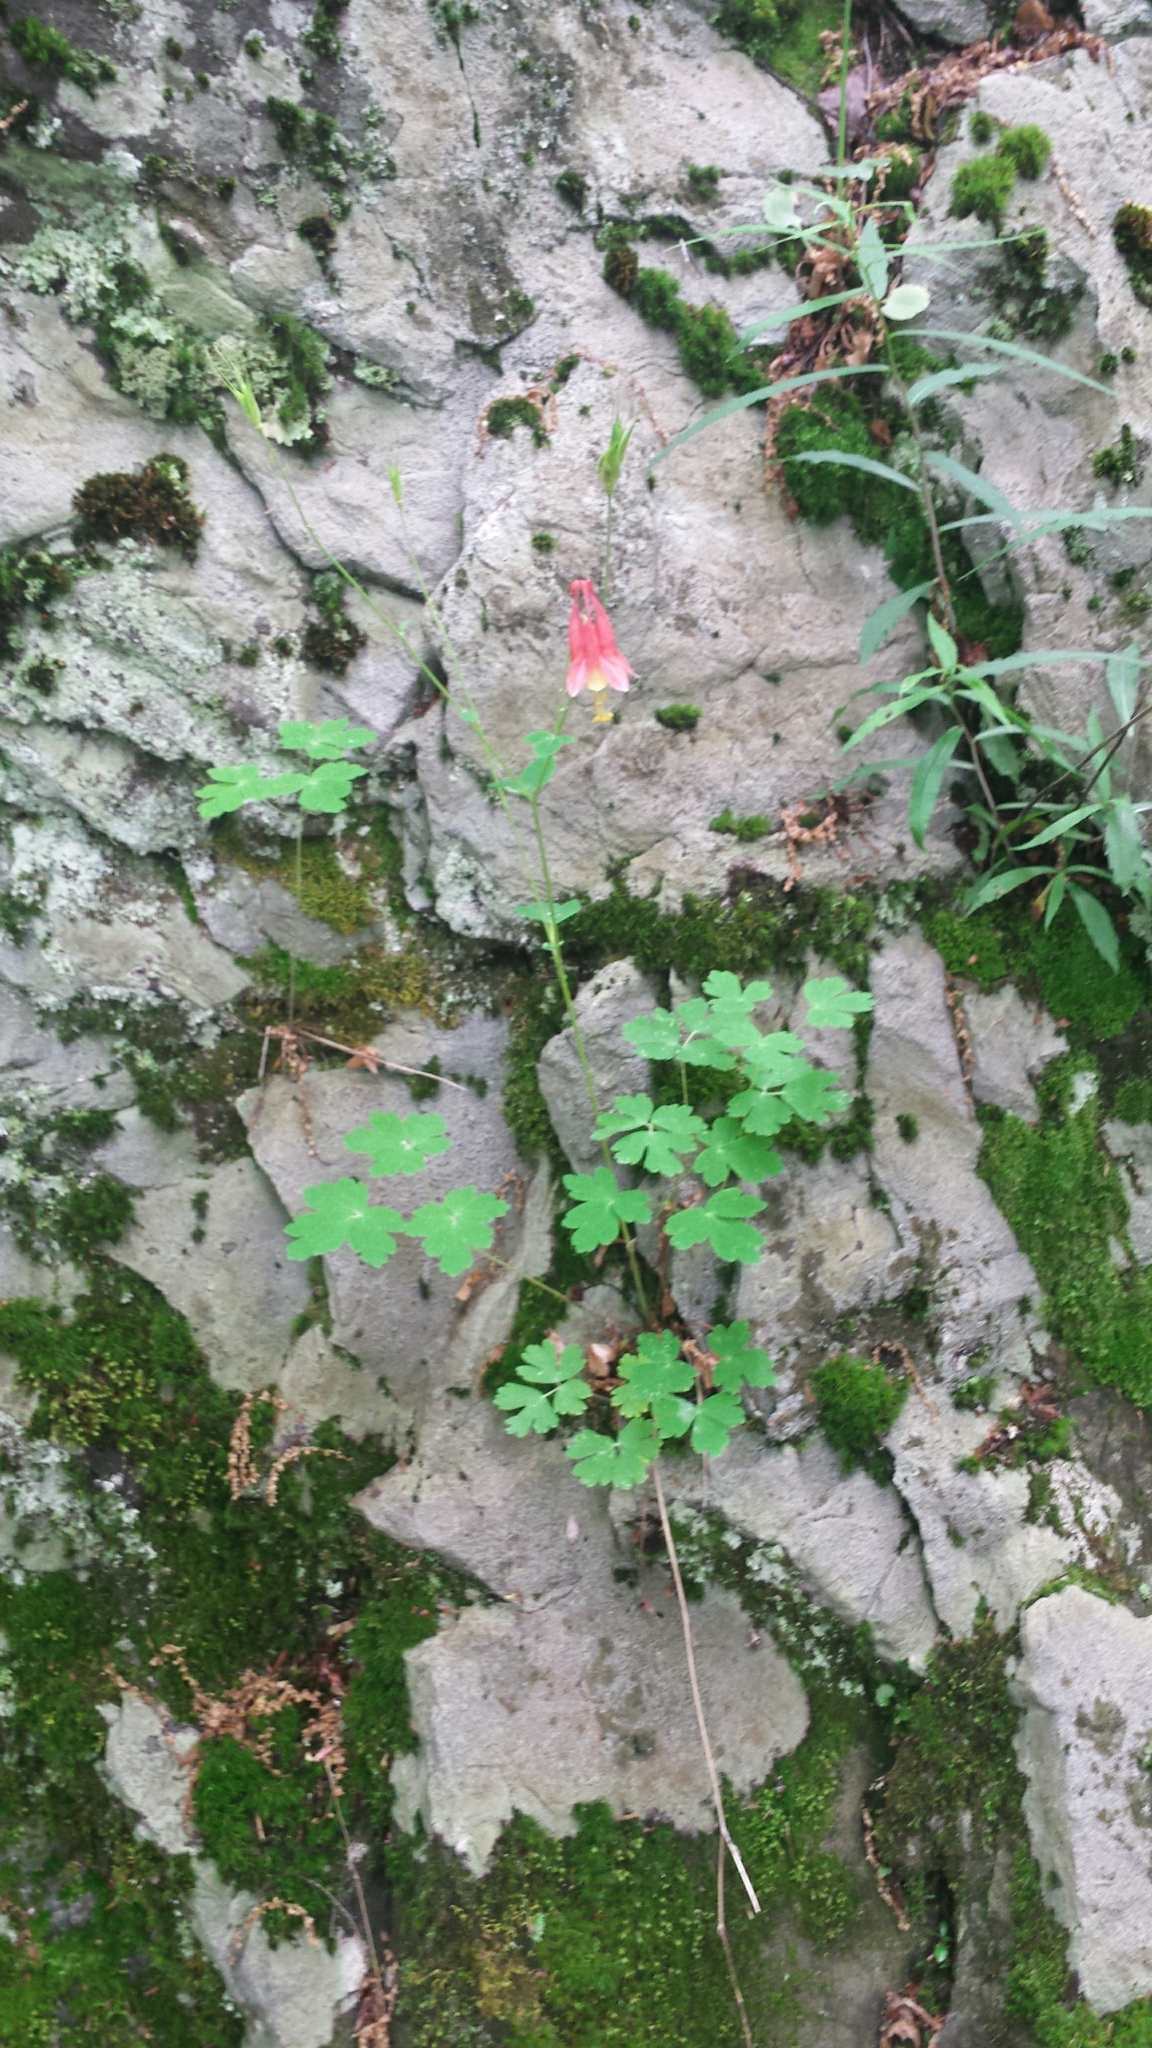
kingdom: Plantae
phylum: Tracheophyta
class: Magnoliopsida
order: Ranunculales
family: Ranunculaceae
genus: Aquilegia
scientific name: Aquilegia canadensis
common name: American columbine
